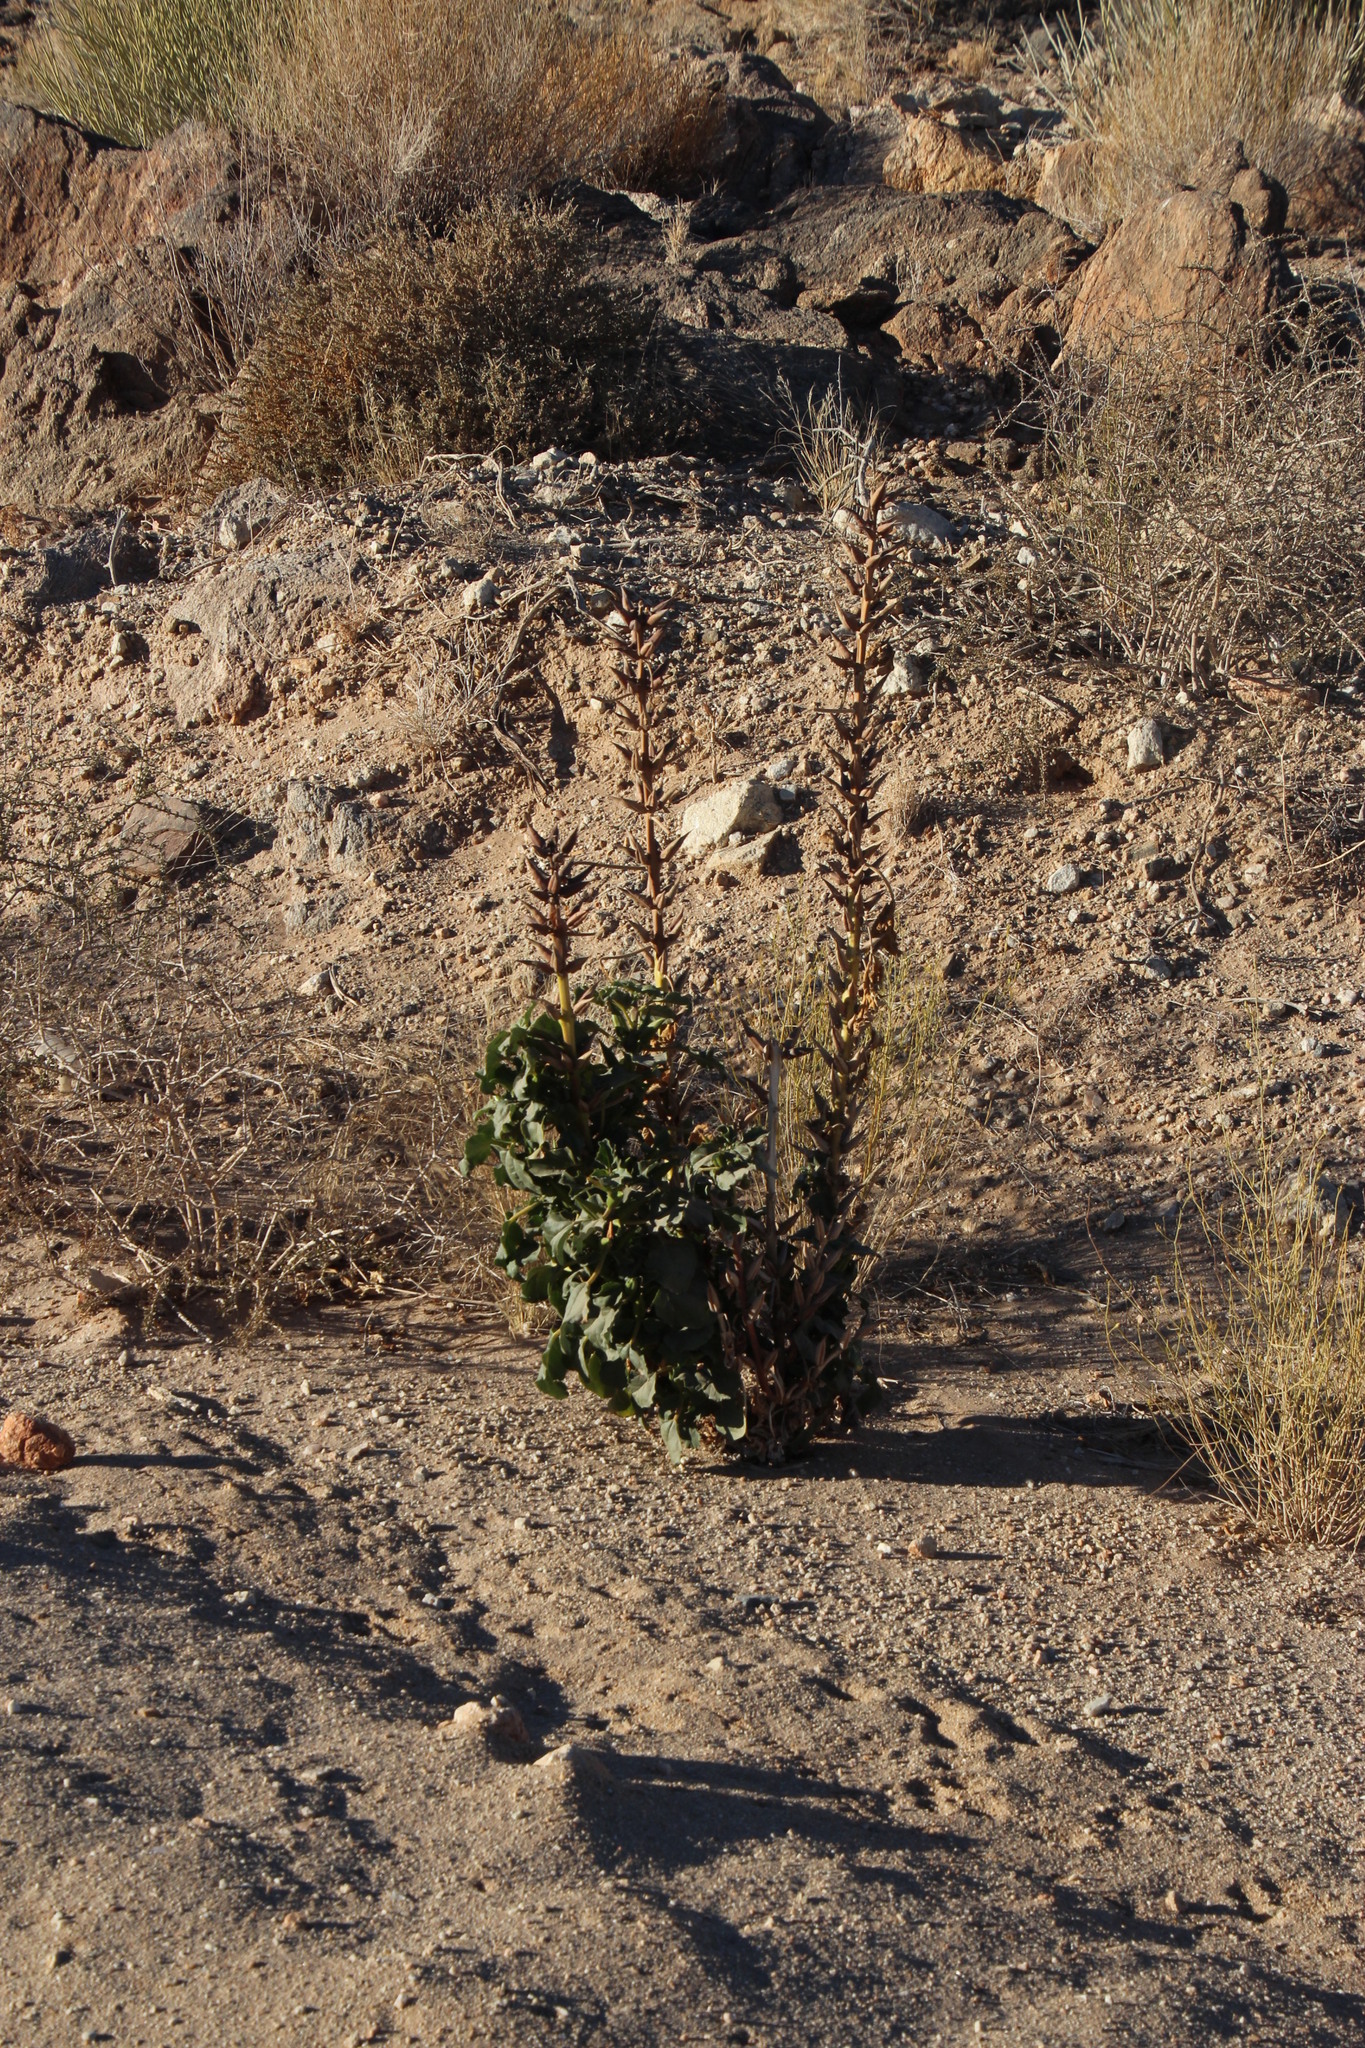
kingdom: Plantae
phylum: Tracheophyta
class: Magnoliopsida
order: Lamiales
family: Pedaliaceae
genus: Rogeria
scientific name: Rogeria longiflora
